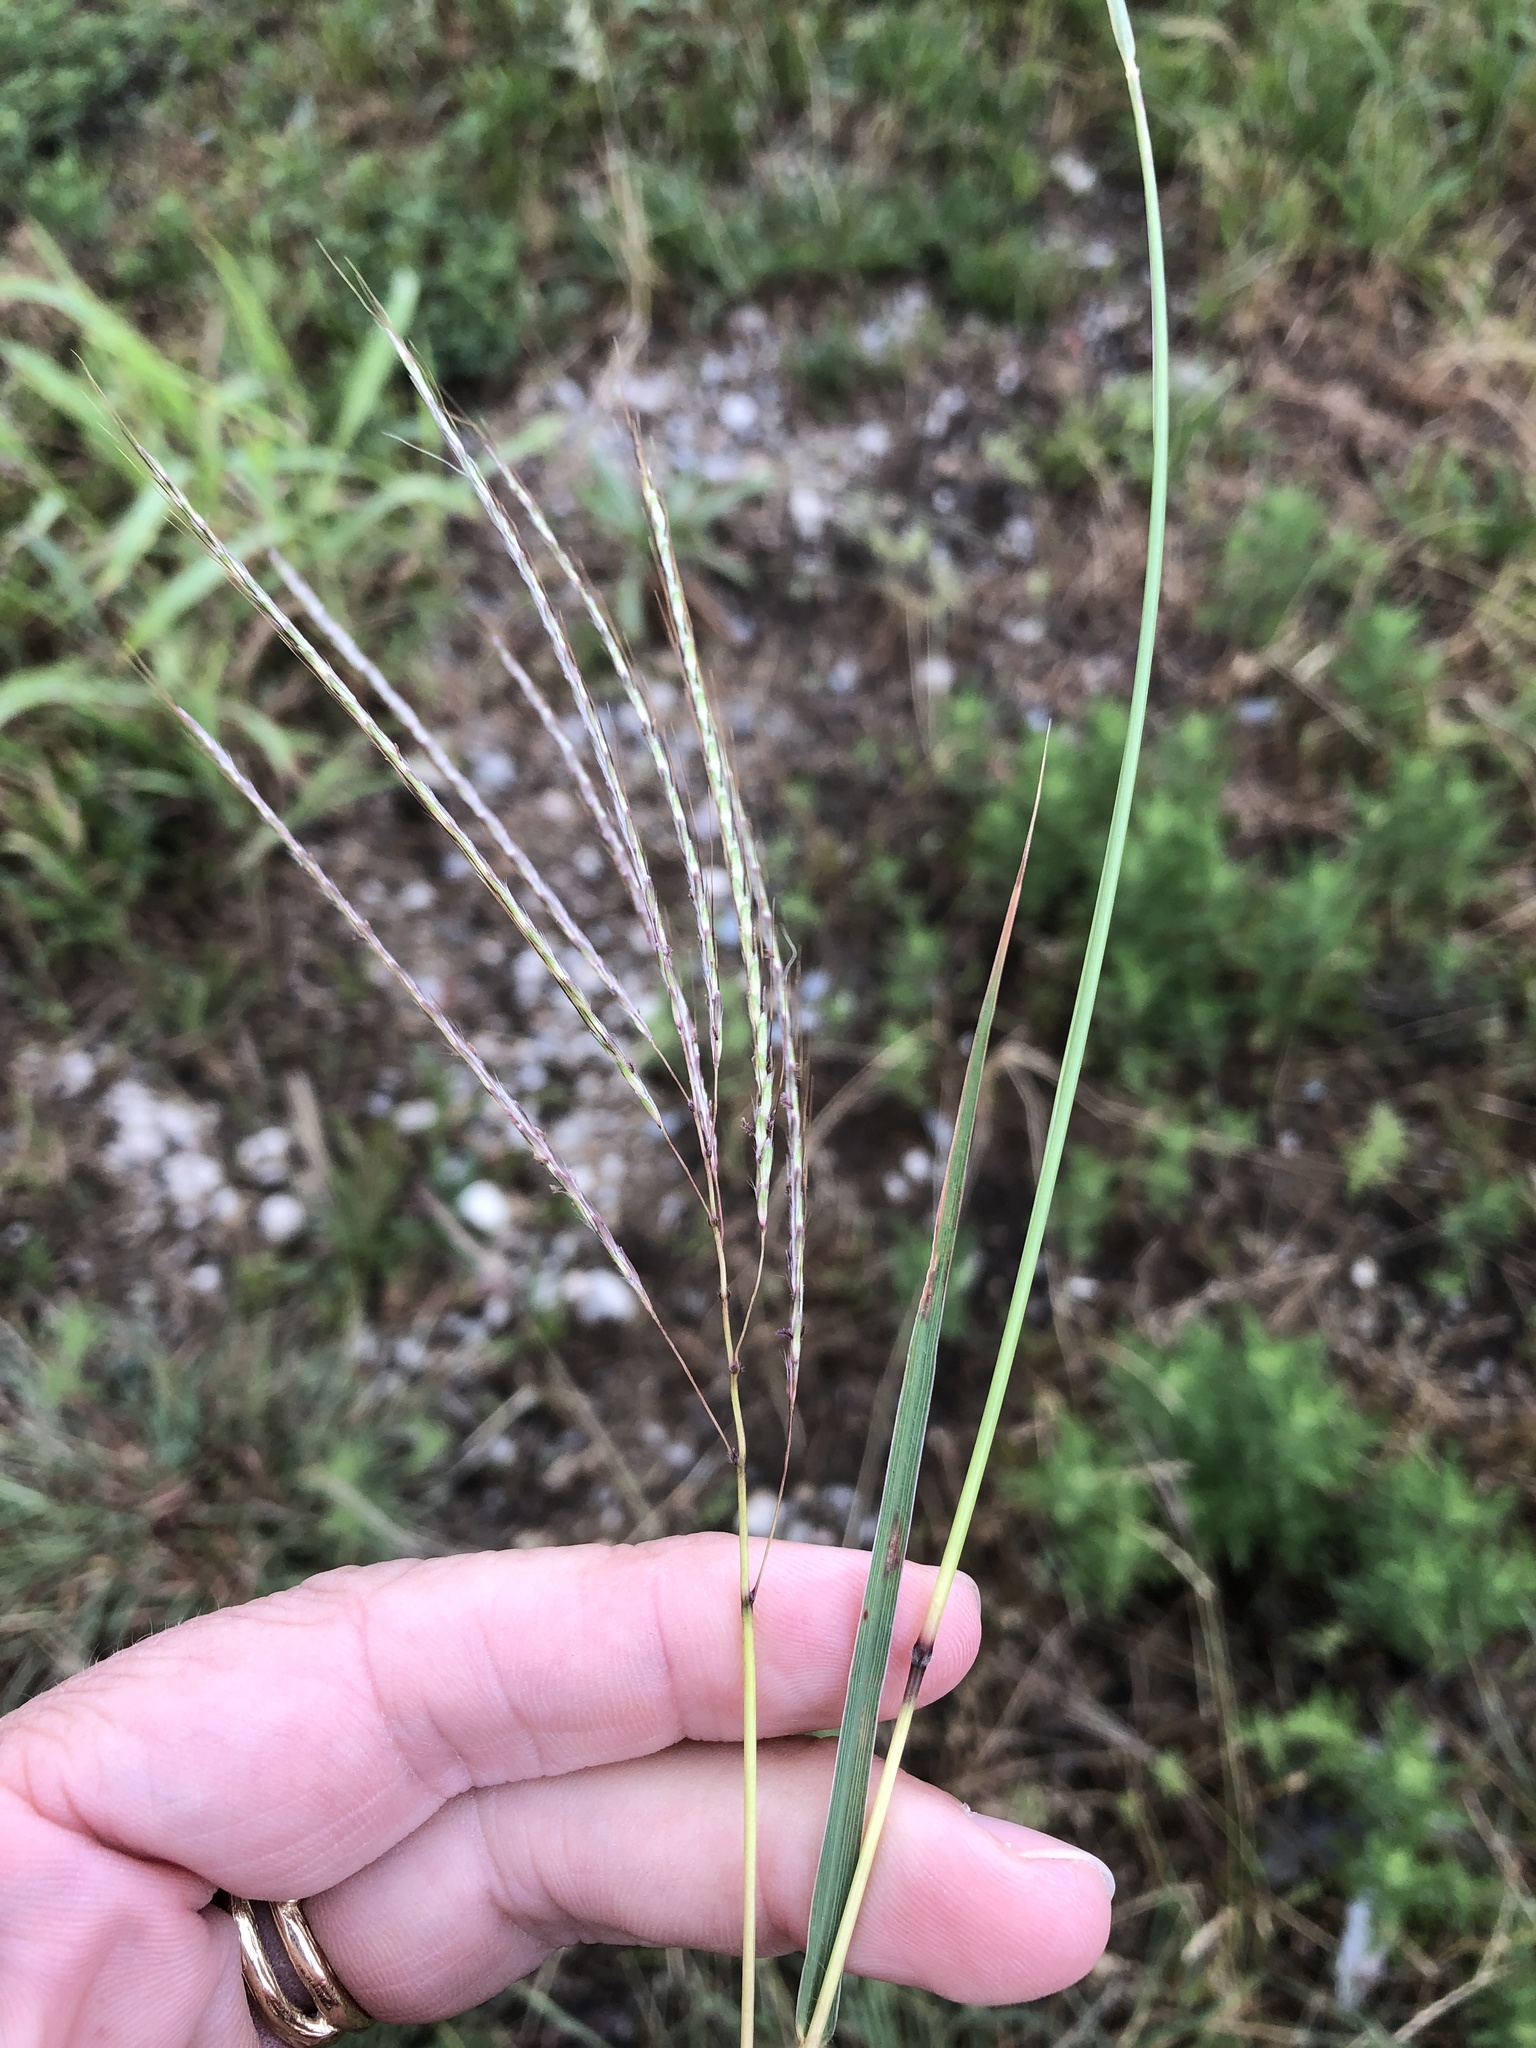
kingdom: Plantae
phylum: Tracheophyta
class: Liliopsida
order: Poales
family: Poaceae
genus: Bothriochloa
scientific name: Bothriochloa ischaemum
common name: Yellow bluestem
